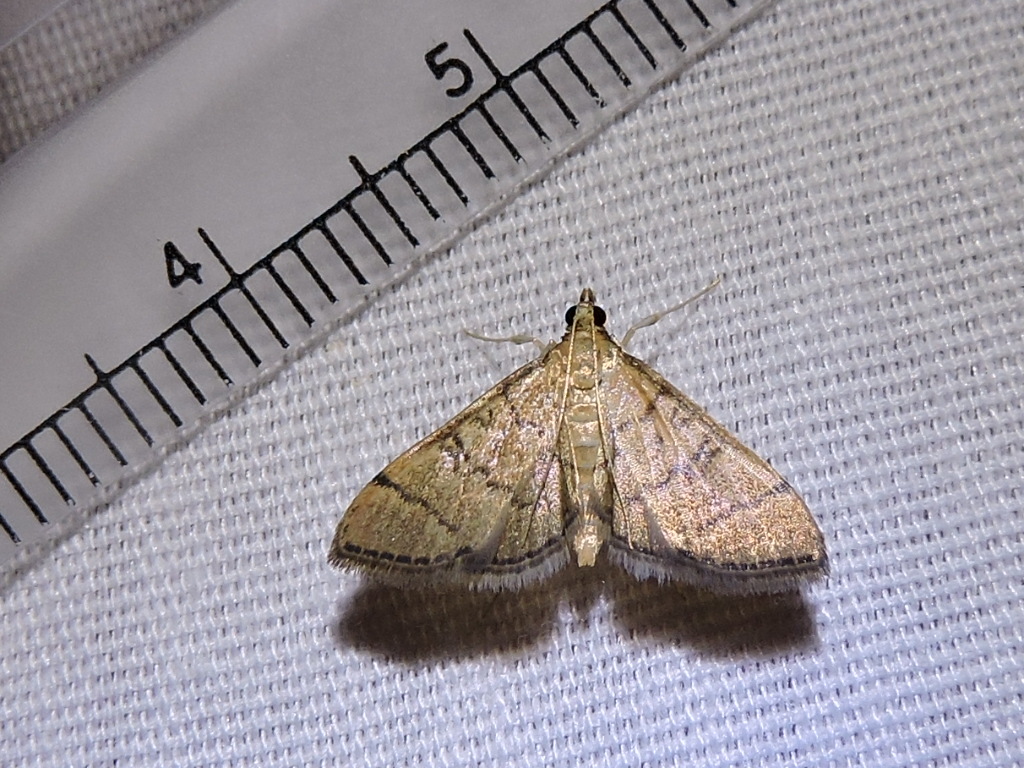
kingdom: Animalia
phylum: Arthropoda
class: Insecta
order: Lepidoptera
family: Crambidae
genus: Lamprosema
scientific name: Lamprosema Blepharomastix ranalis
